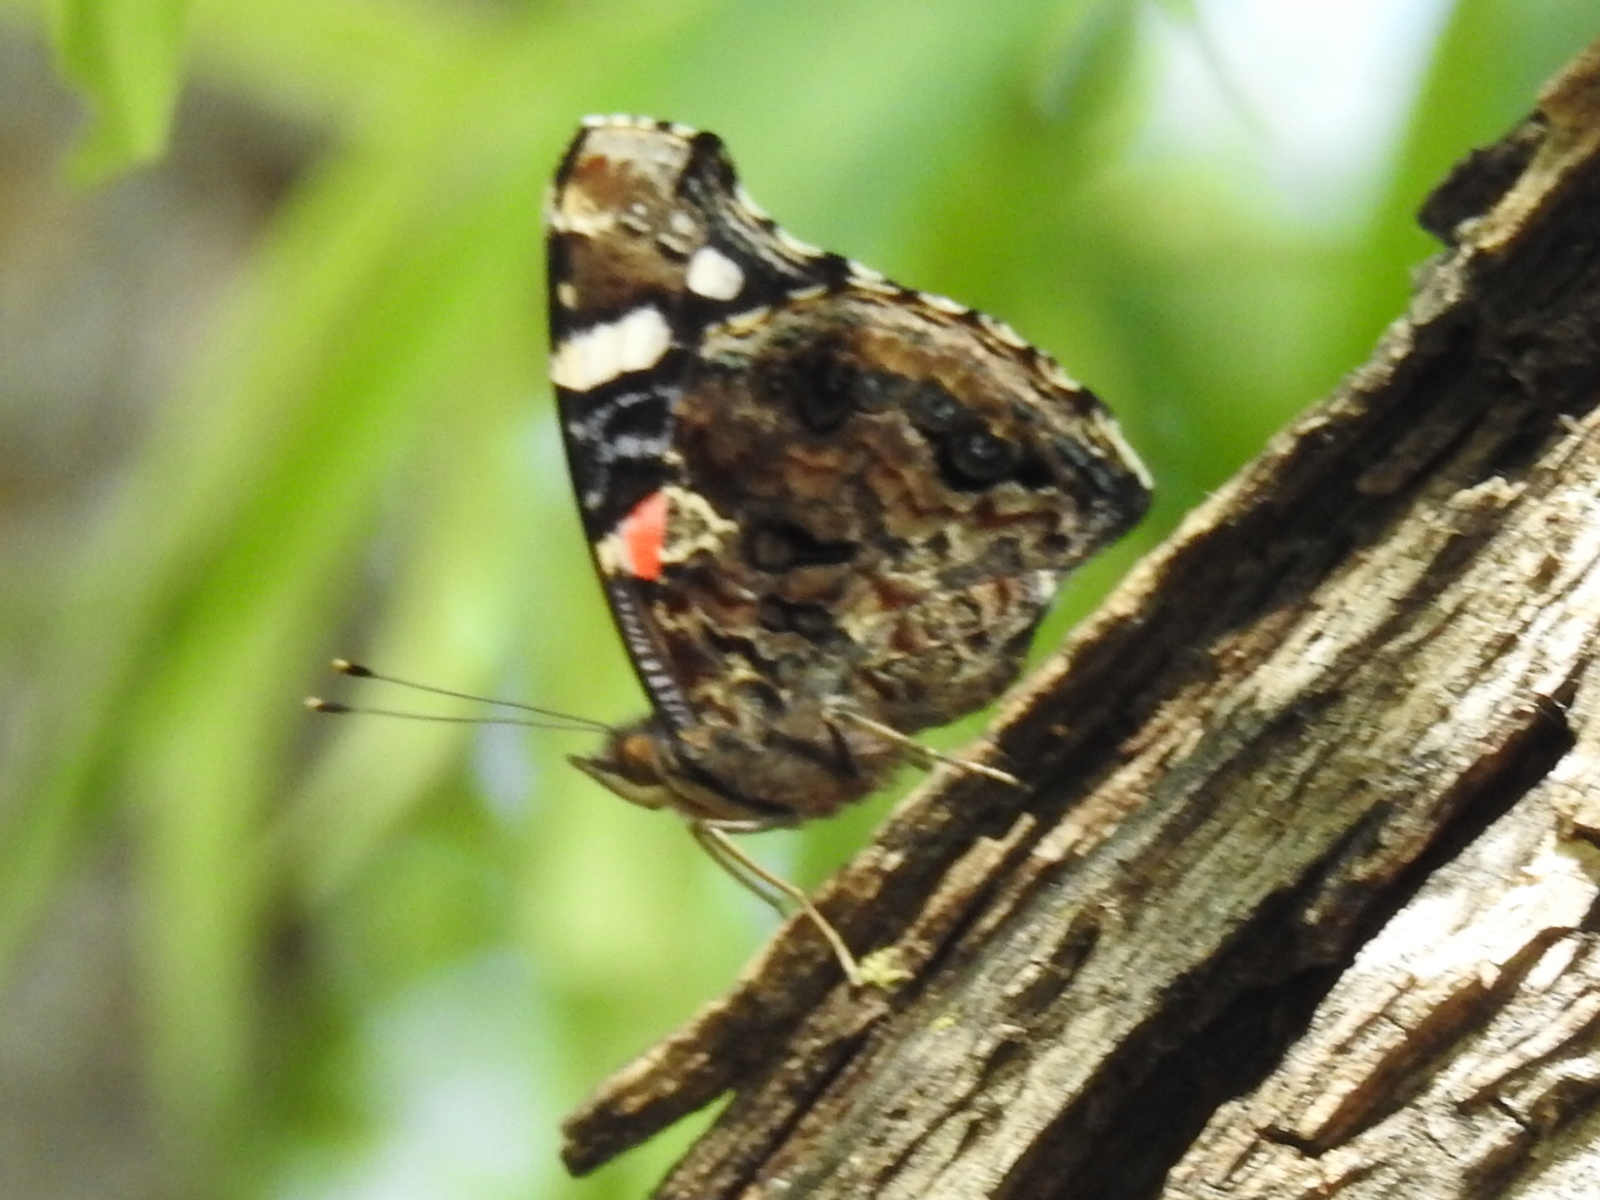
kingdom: Animalia
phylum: Arthropoda
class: Insecta
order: Lepidoptera
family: Nymphalidae
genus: Vanessa
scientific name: Vanessa atalanta
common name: Red admiral
